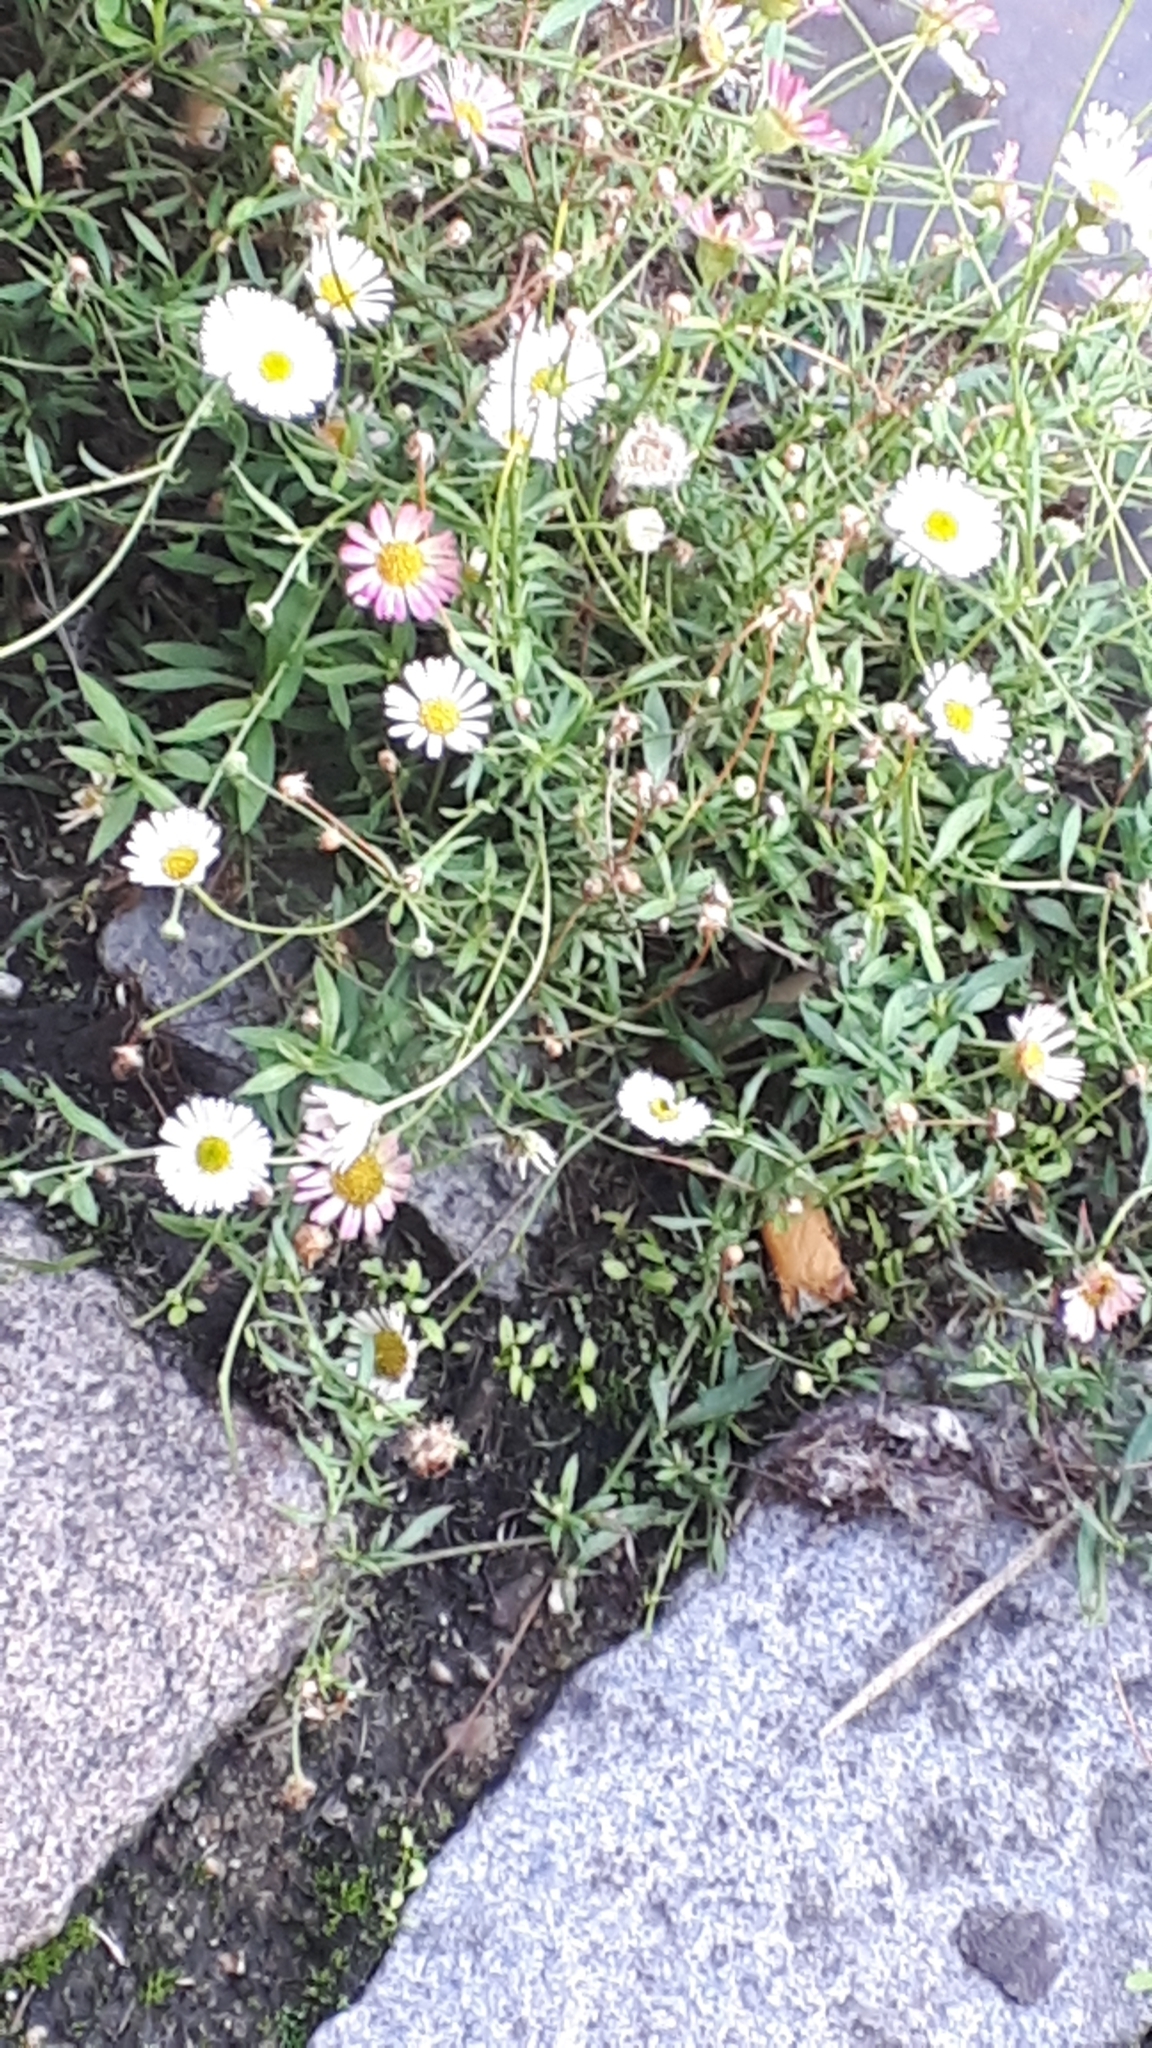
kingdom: Plantae
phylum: Tracheophyta
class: Magnoliopsida
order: Asterales
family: Asteraceae
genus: Erigeron
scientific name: Erigeron karvinskianus
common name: Mexican fleabane
